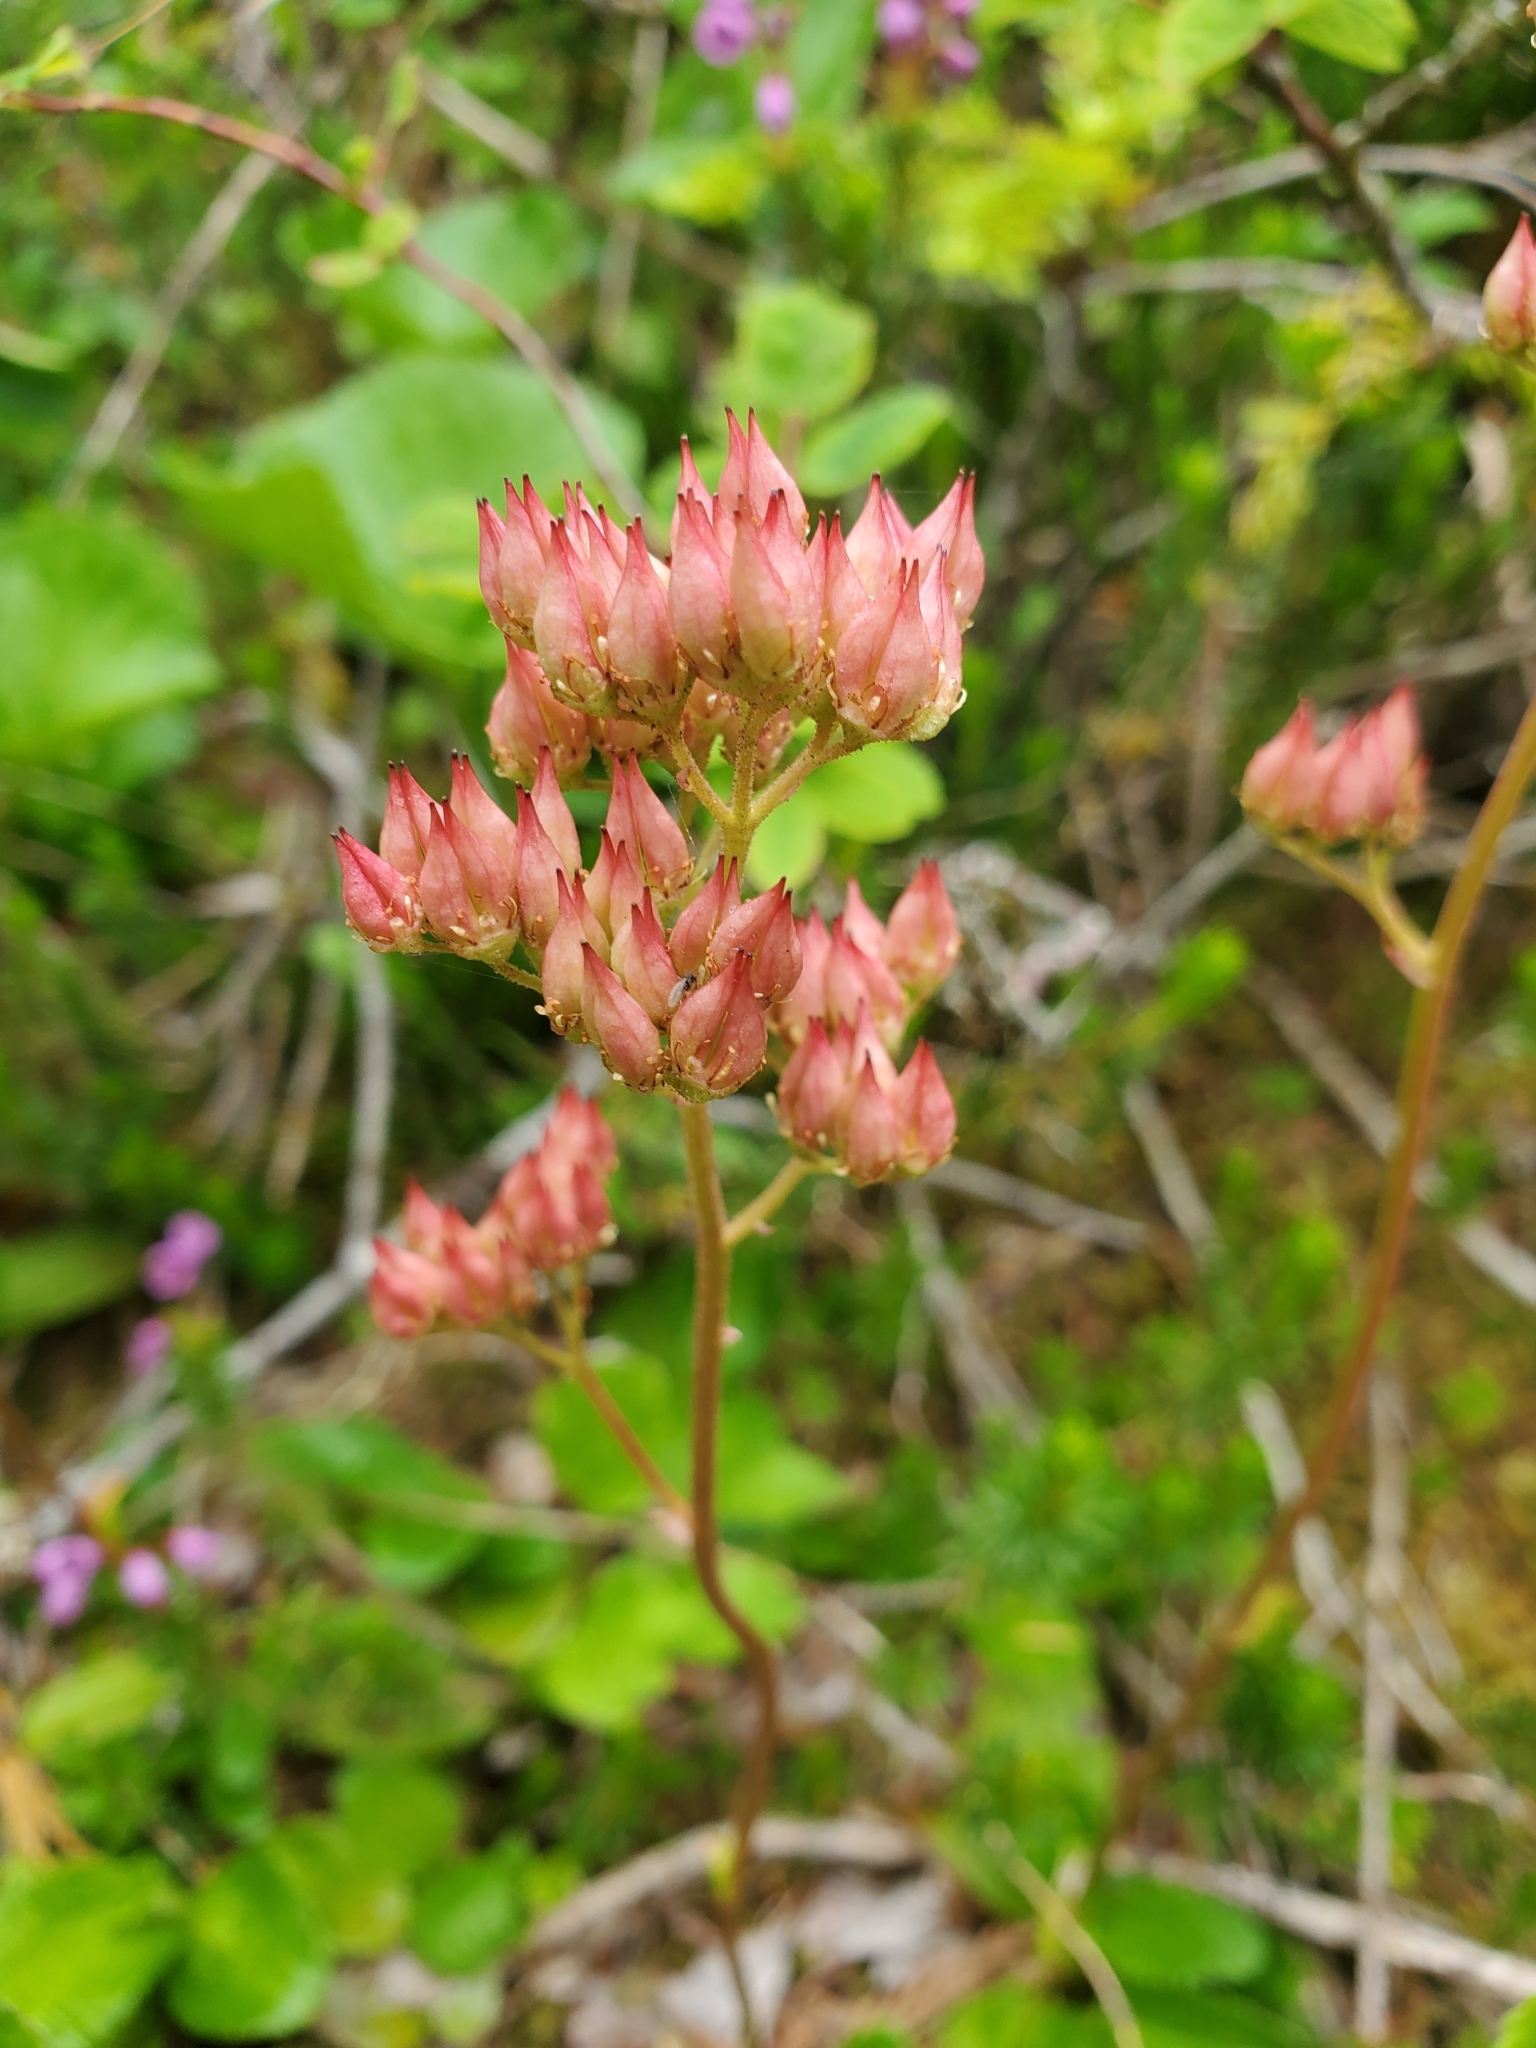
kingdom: Plantae
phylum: Tracheophyta
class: Magnoliopsida
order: Saxifragales
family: Saxifragaceae
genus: Leptarrhena
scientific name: Leptarrhena pyrolifolia
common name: Leatherleaf-saxifrage
